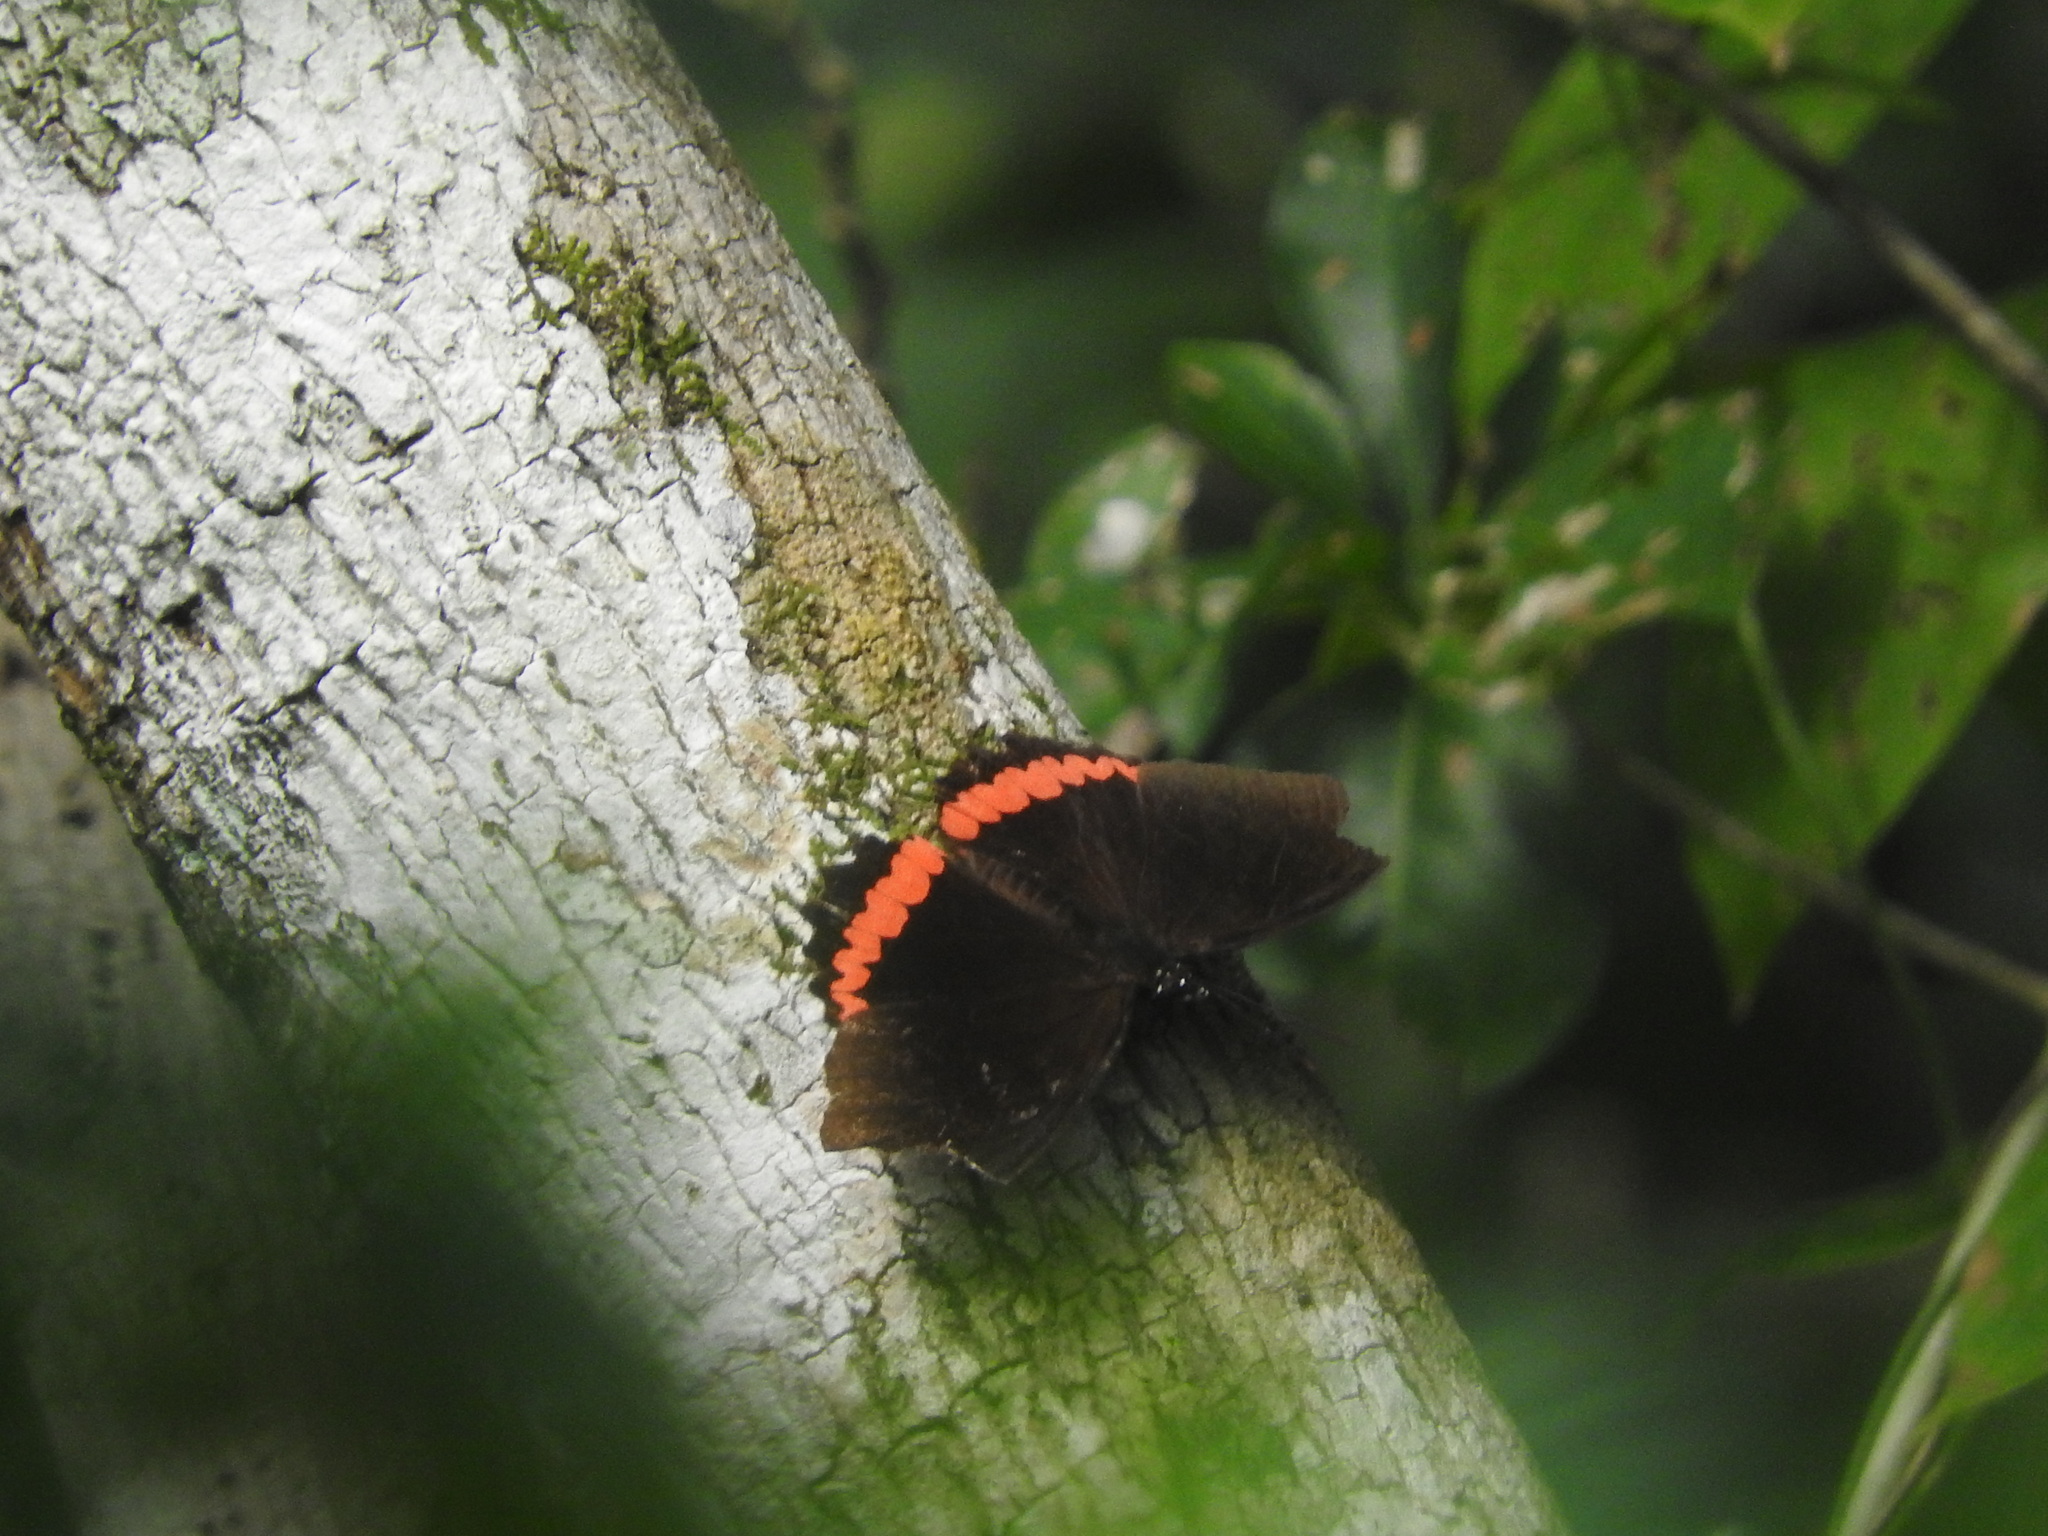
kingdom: Animalia
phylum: Arthropoda
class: Insecta
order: Lepidoptera
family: Nymphalidae
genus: Biblis
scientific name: Biblis aganisa
